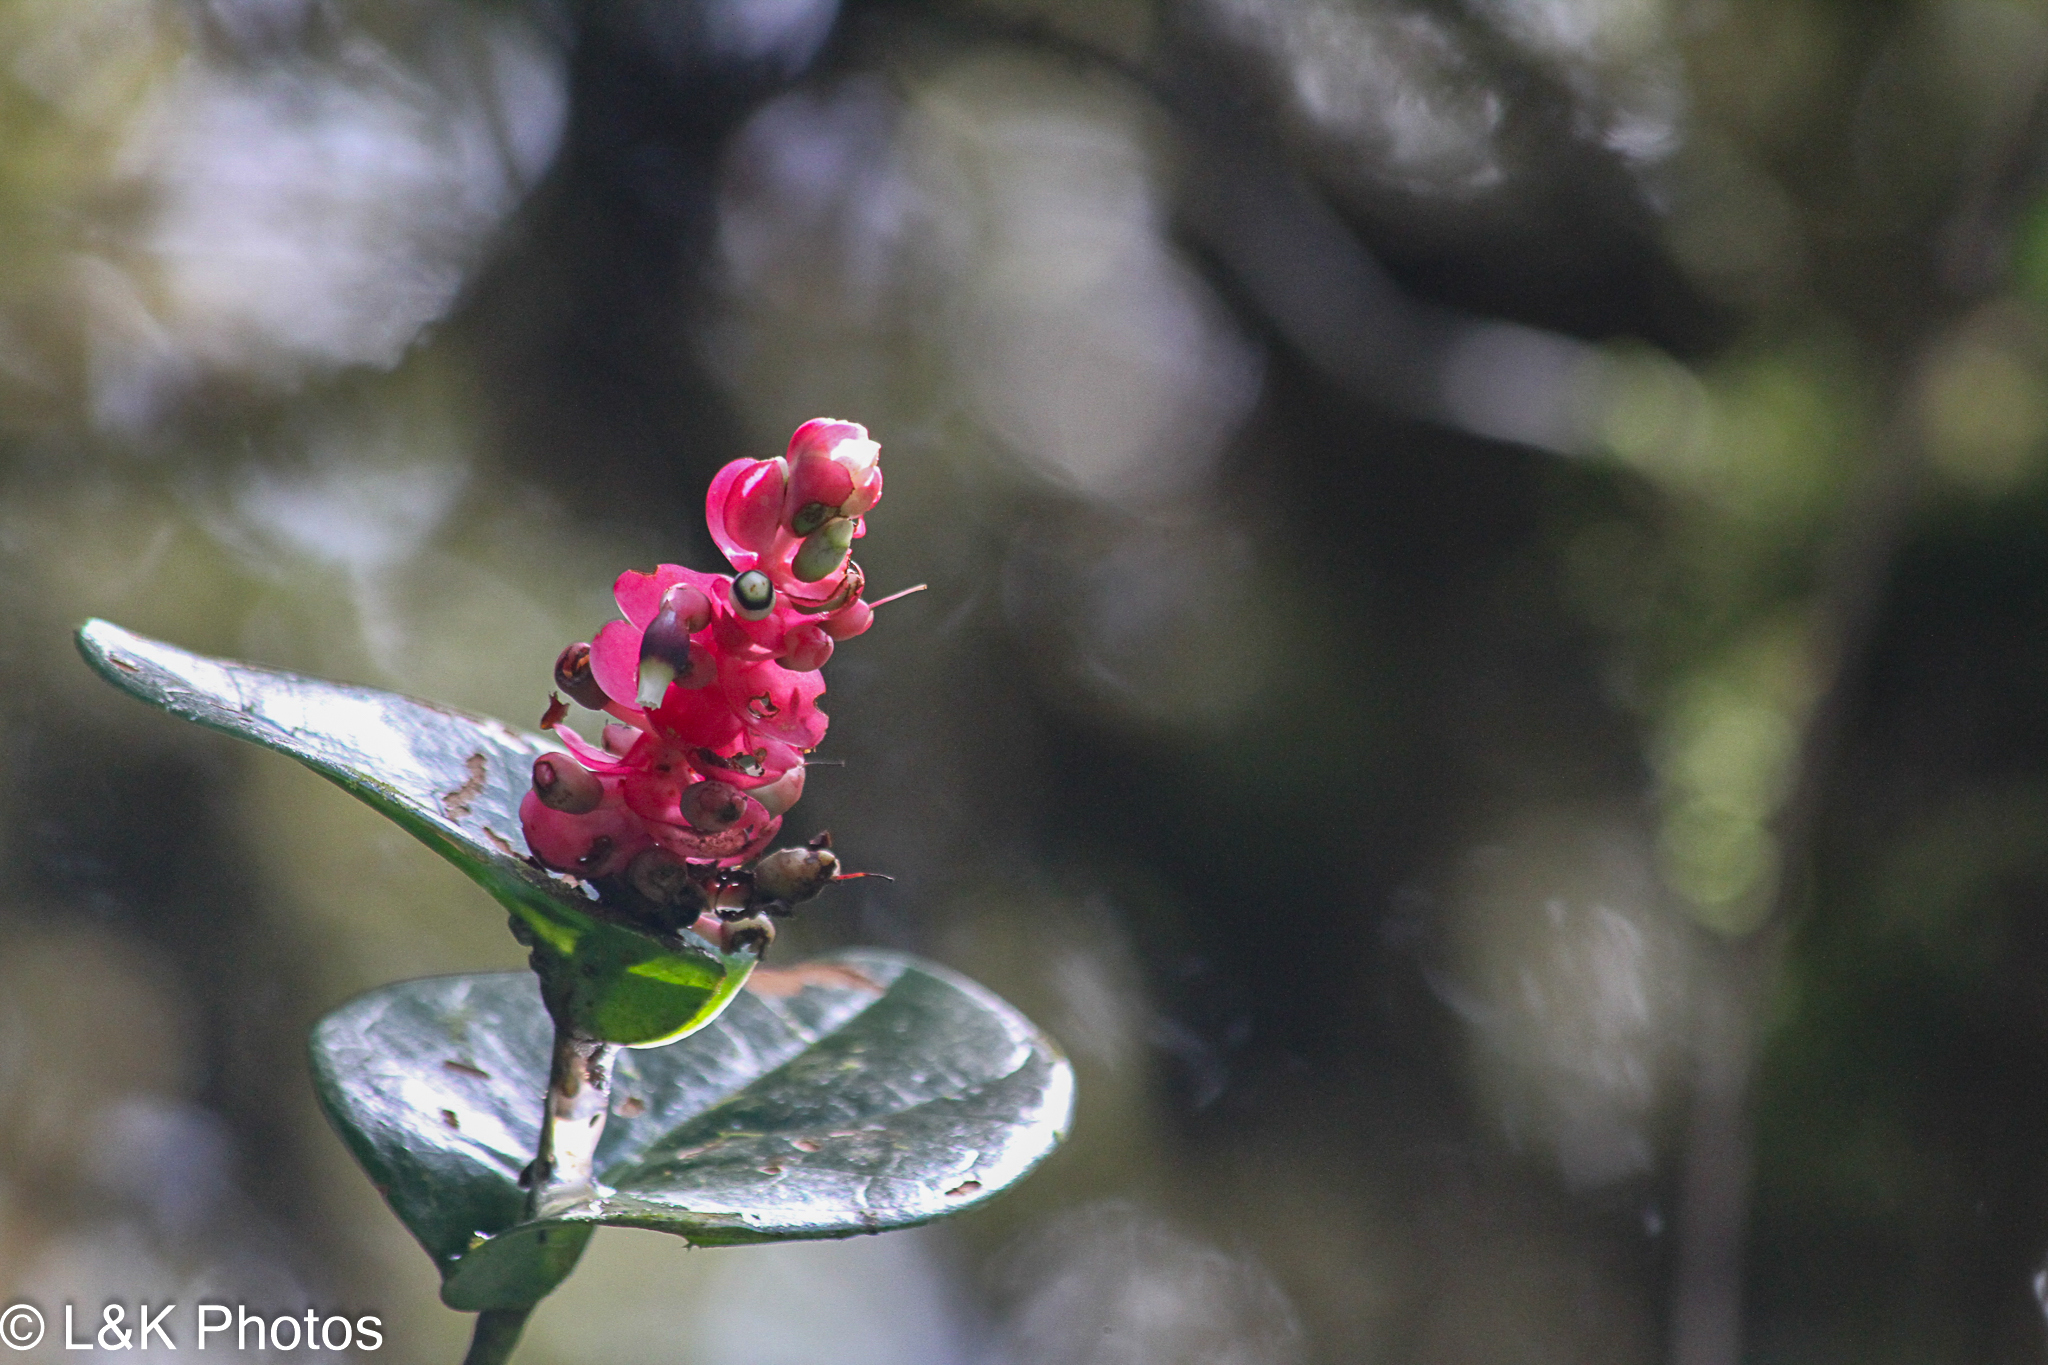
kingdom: Plantae
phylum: Tracheophyta
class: Magnoliopsida
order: Ericales
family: Ericaceae
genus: Cavendishia
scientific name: Cavendishia complectens
